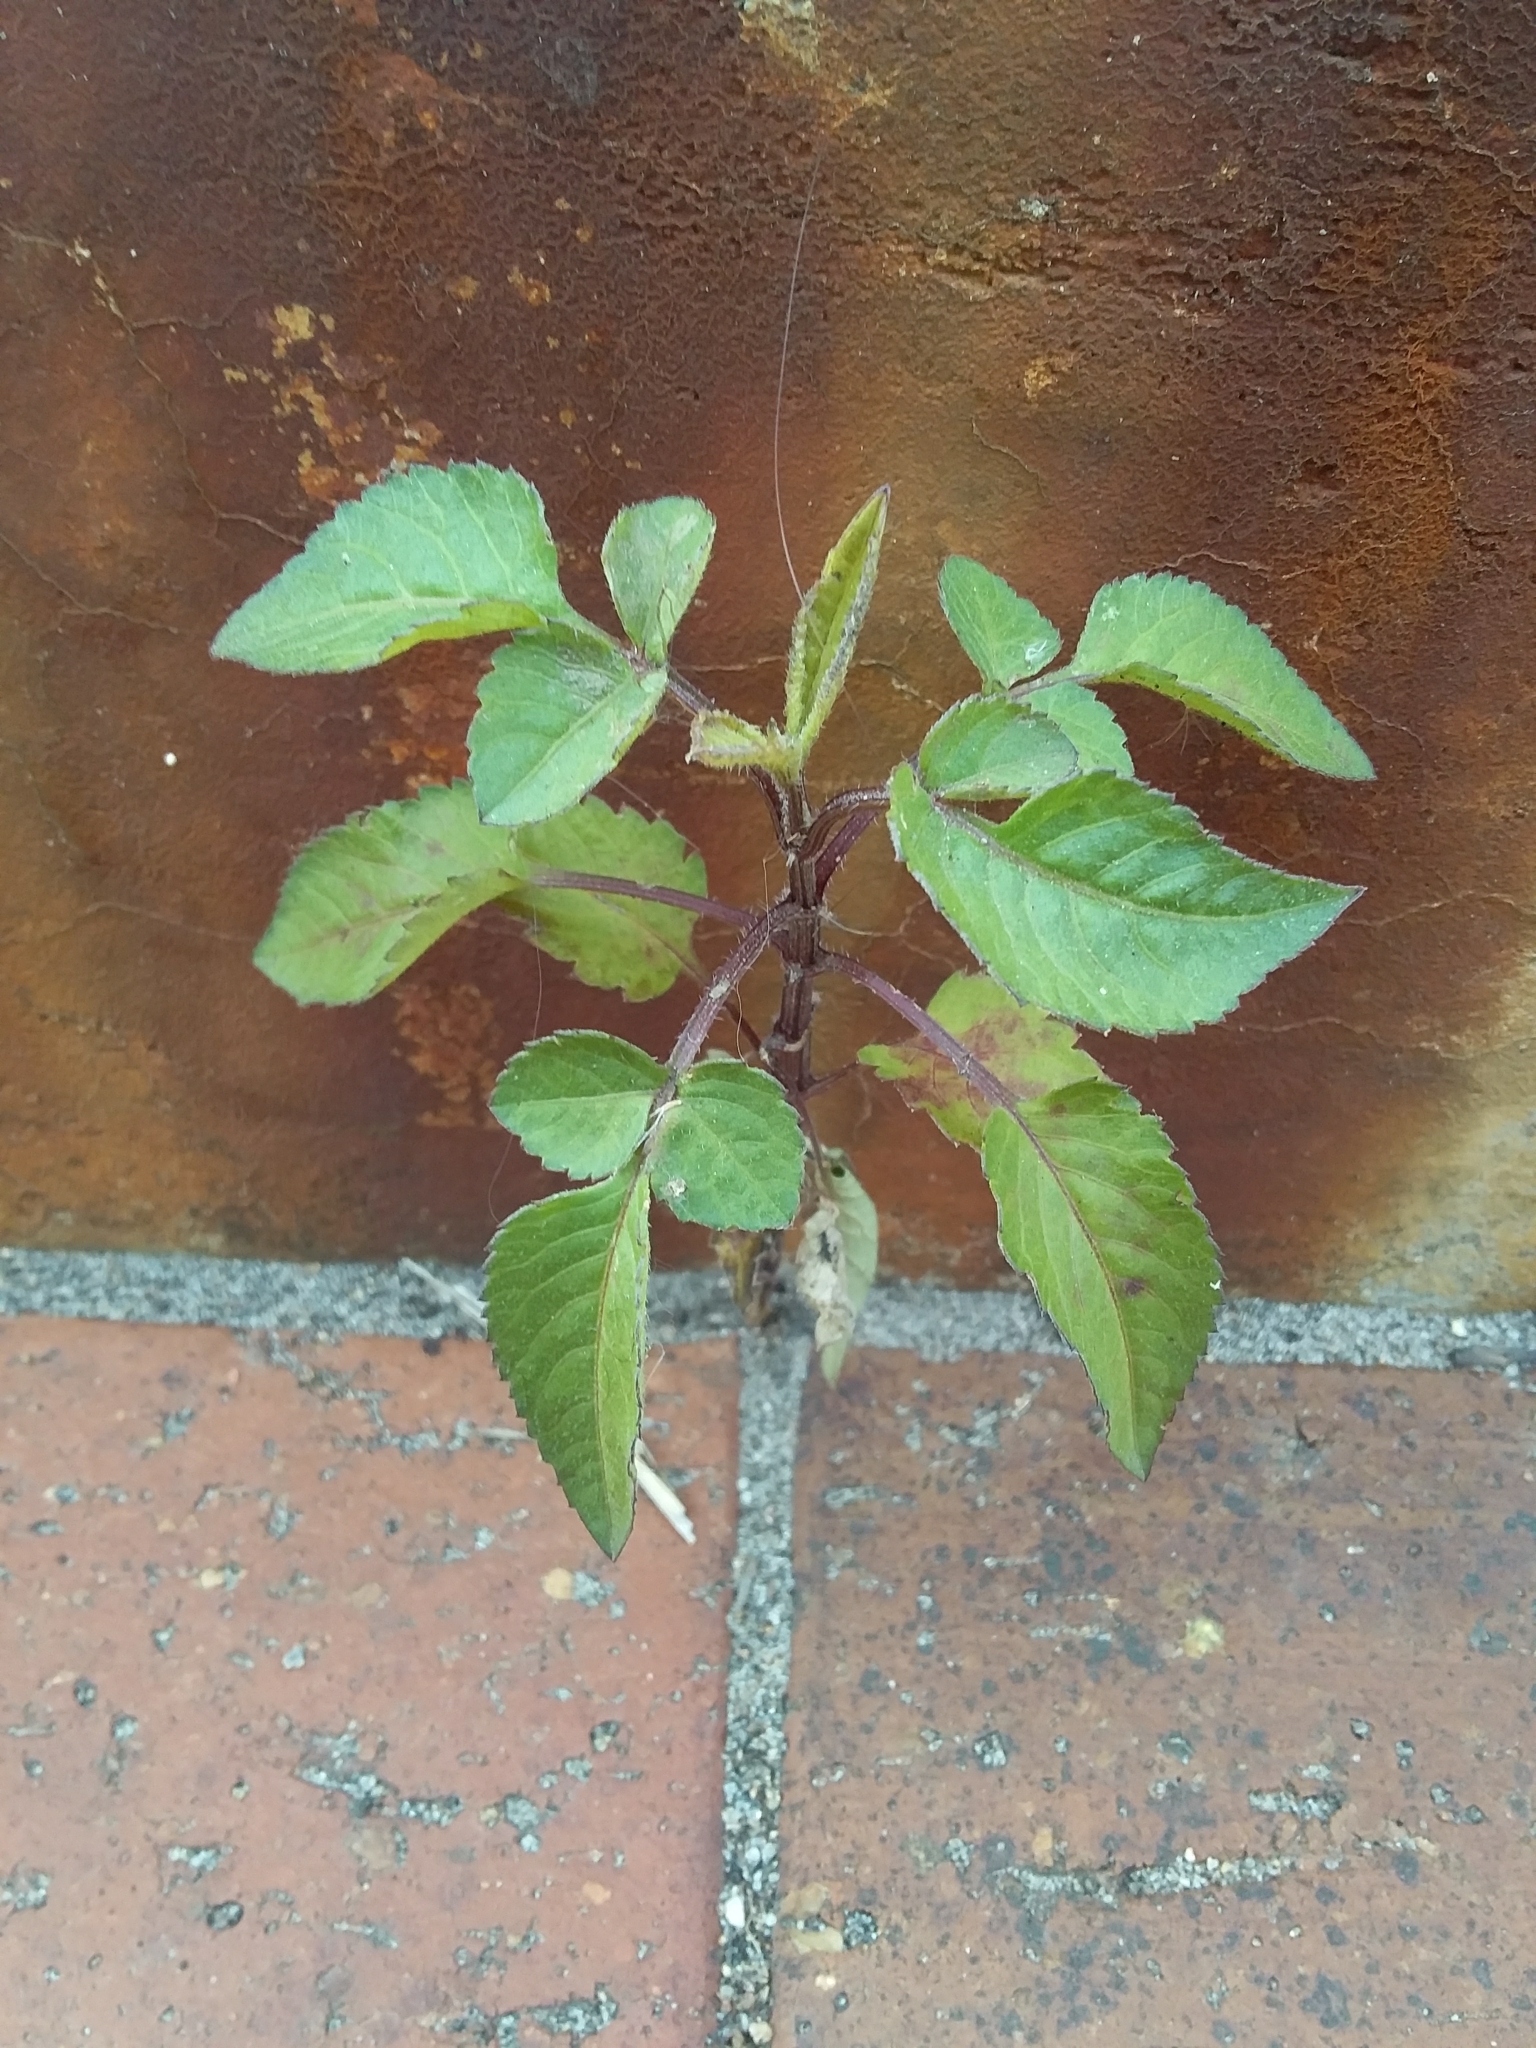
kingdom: Plantae
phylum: Tracheophyta
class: Magnoliopsida
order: Asterales
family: Asteraceae
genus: Bidens
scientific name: Bidens pilosa
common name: Black-jack
